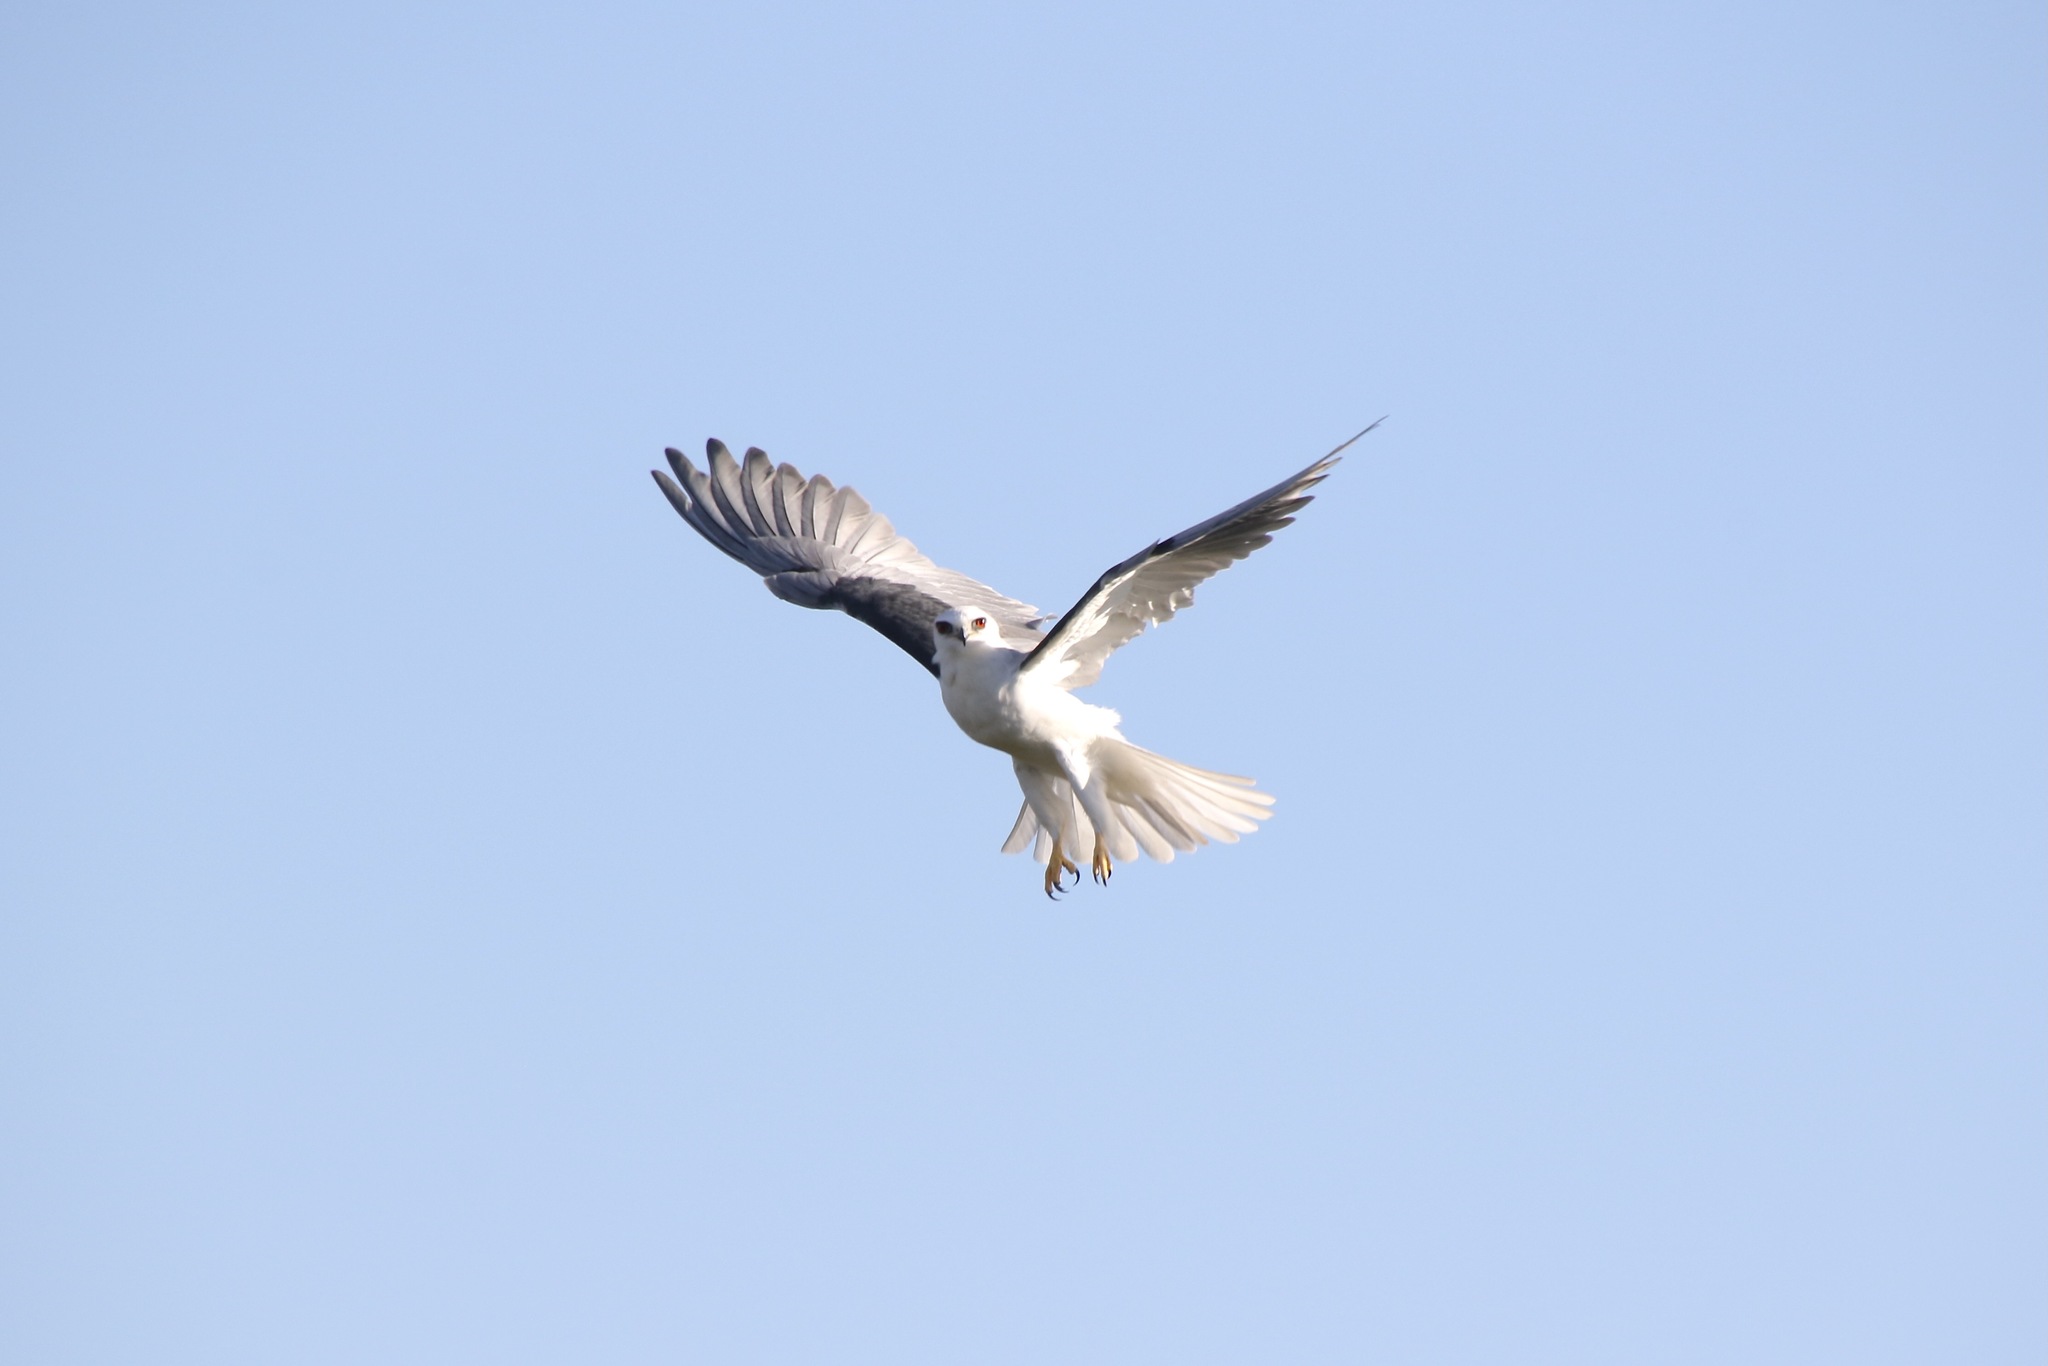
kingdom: Animalia
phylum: Chordata
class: Aves
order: Accipitriformes
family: Accipitridae
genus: Elanus
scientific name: Elanus leucurus
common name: White-tailed kite
